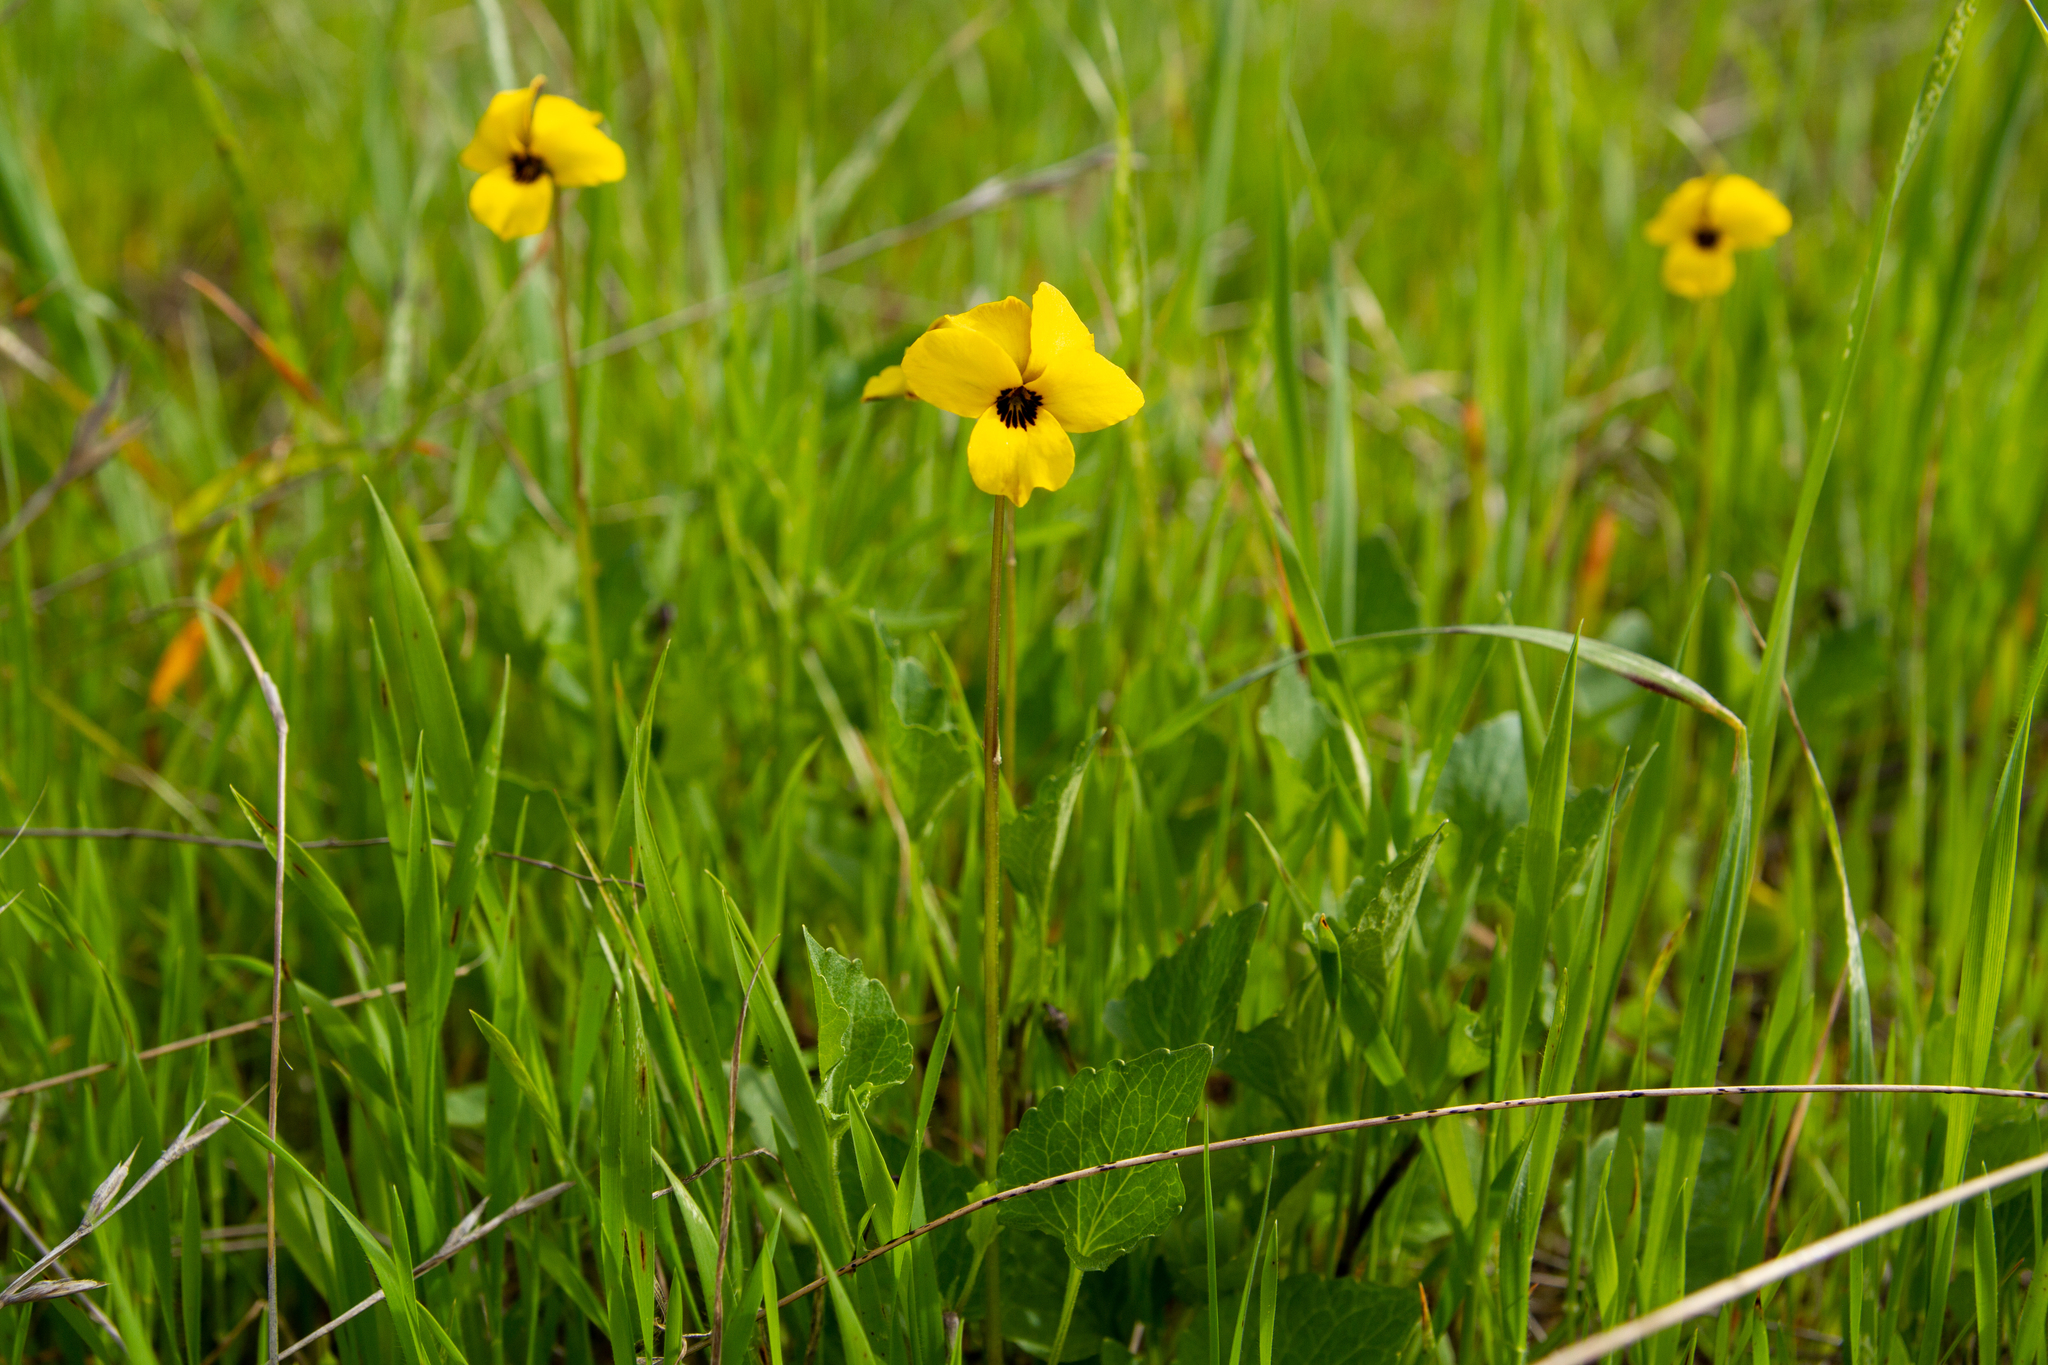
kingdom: Plantae
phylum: Tracheophyta
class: Magnoliopsida
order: Malpighiales
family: Violaceae
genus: Viola
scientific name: Viola pedunculata
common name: California golden violet
